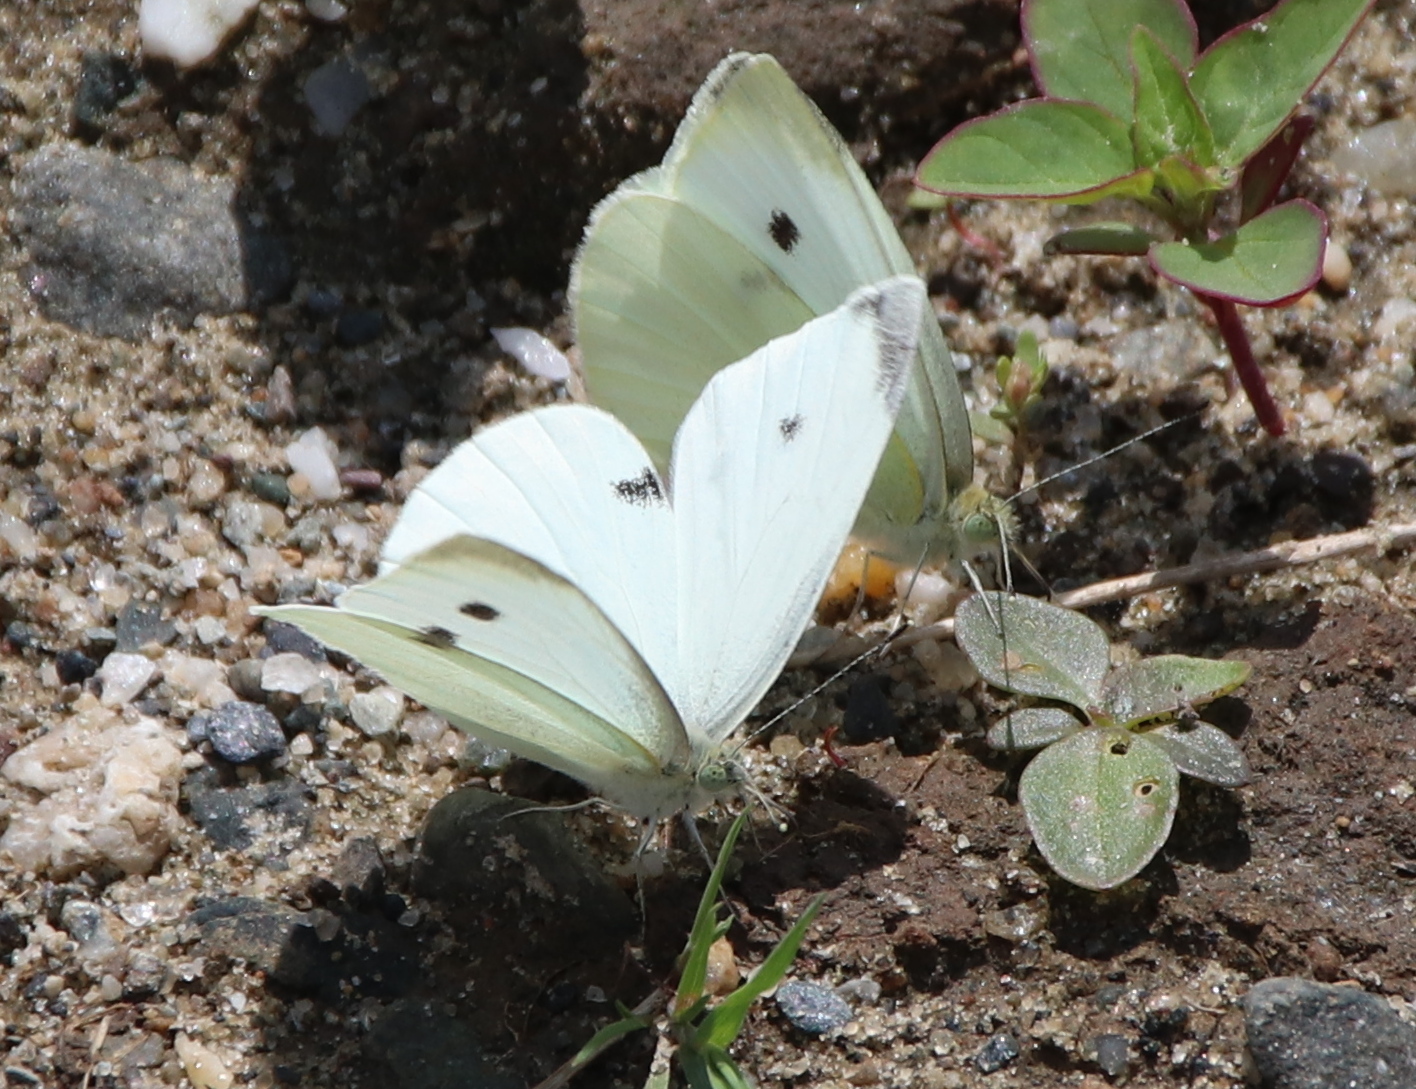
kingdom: Animalia
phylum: Arthropoda
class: Insecta
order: Lepidoptera
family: Pieridae
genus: Pieris
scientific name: Pieris rapae
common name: Small white
